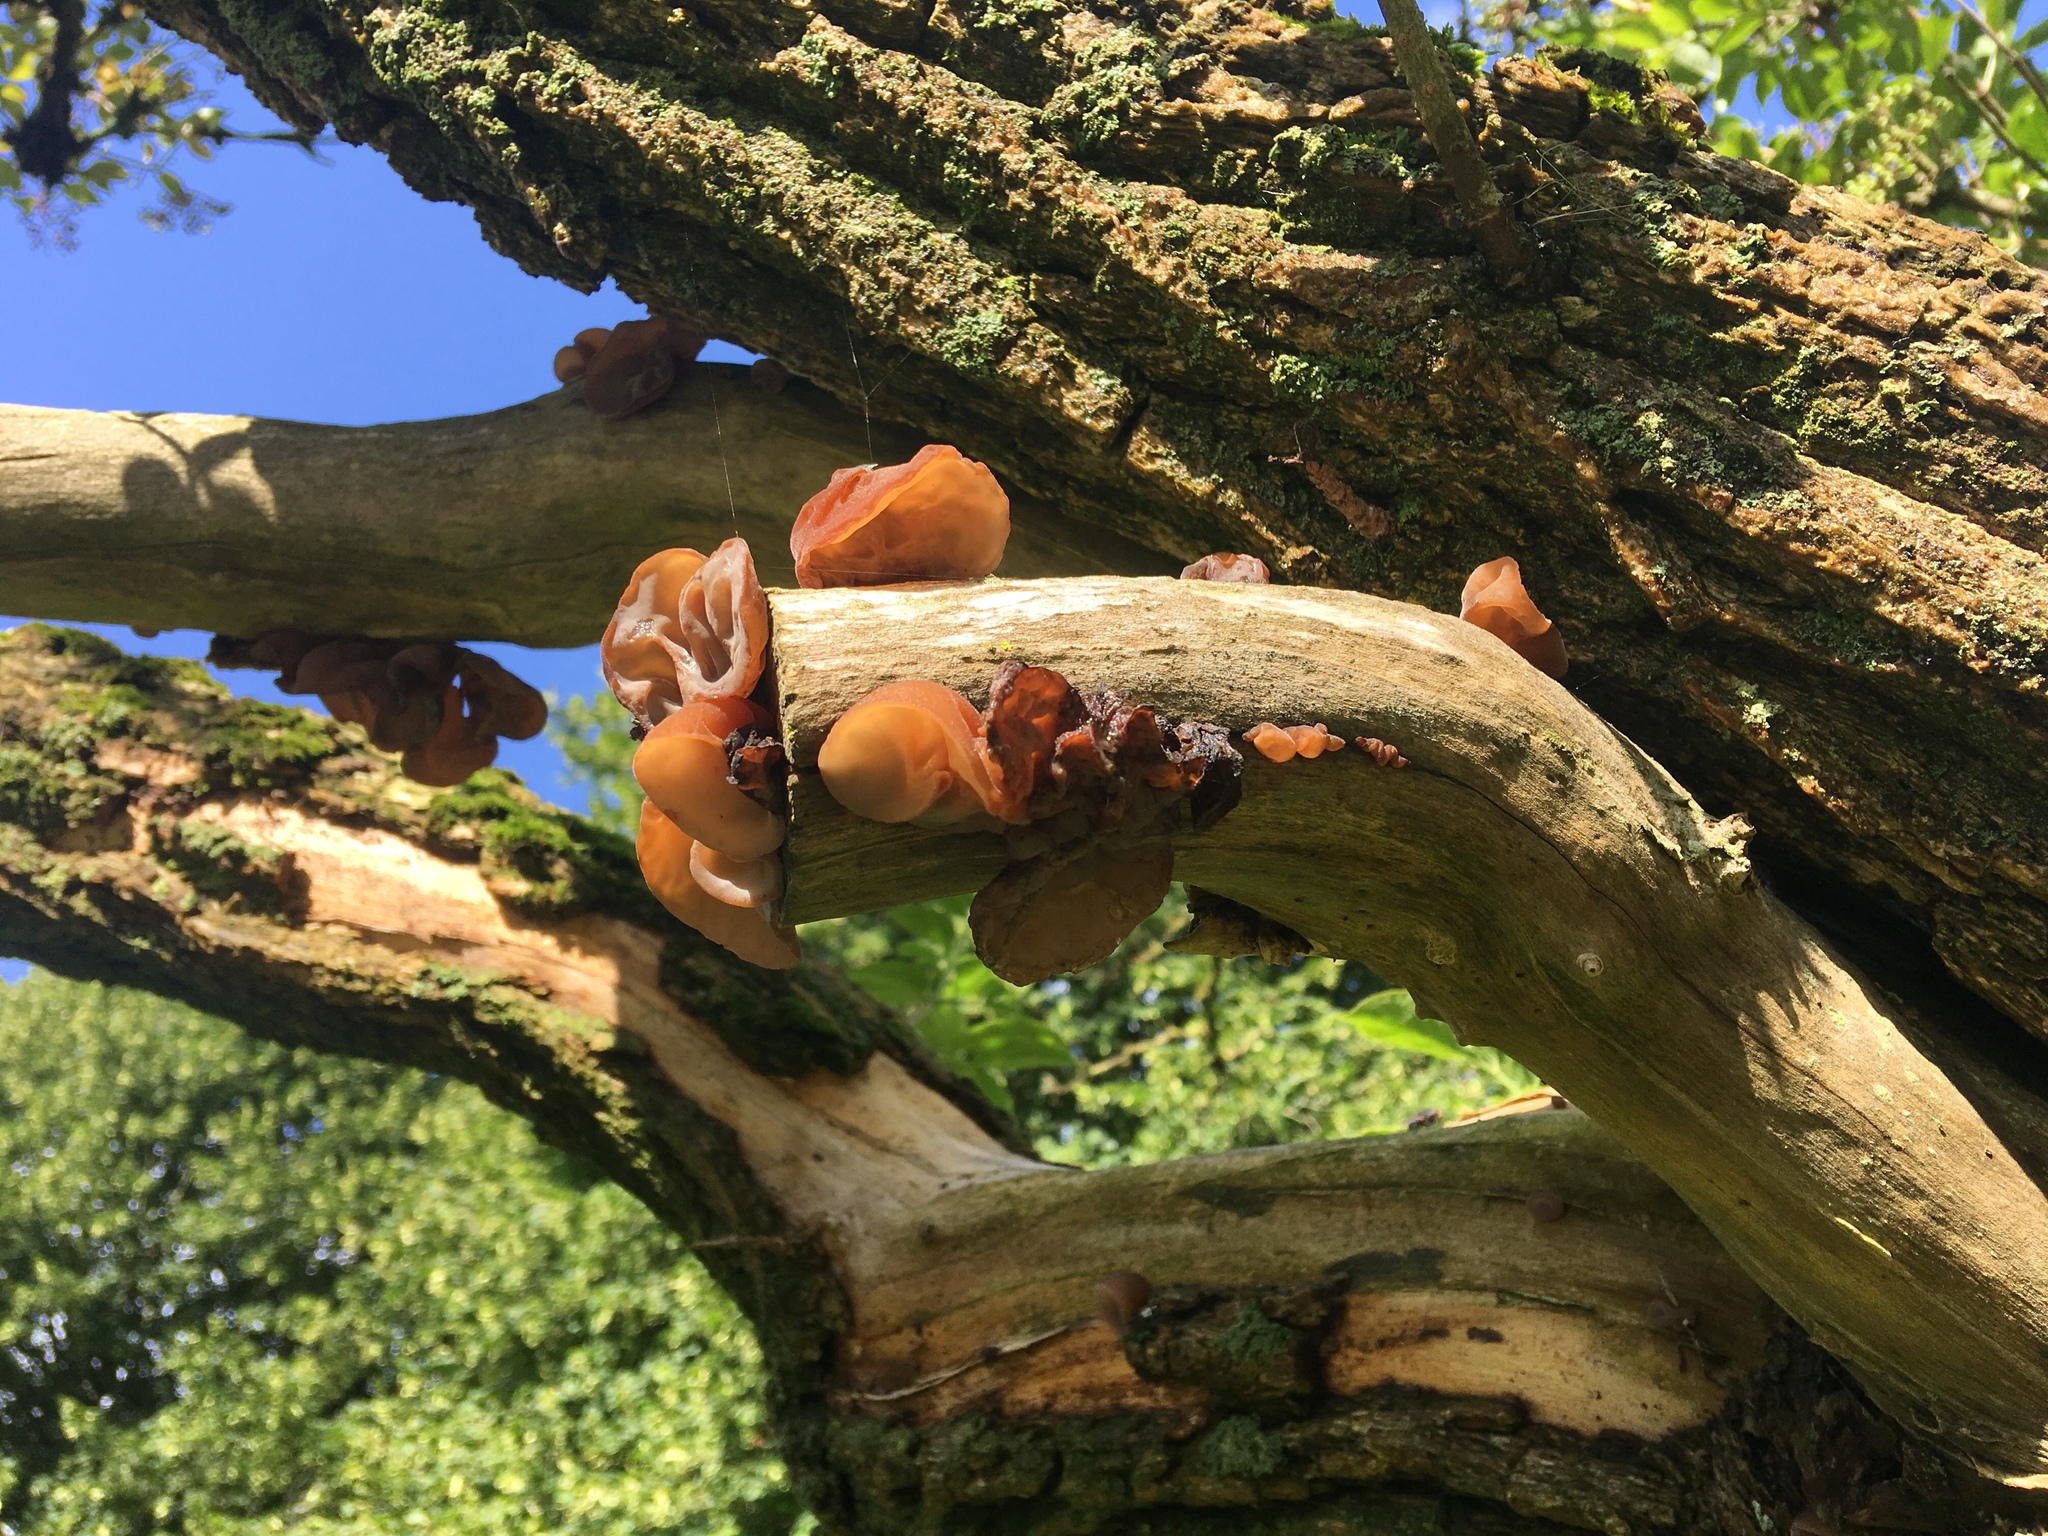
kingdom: Fungi
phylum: Basidiomycota
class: Agaricomycetes
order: Auriculariales
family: Auriculariaceae
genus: Auricularia
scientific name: Auricularia auricula-judae
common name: Jelly ear
